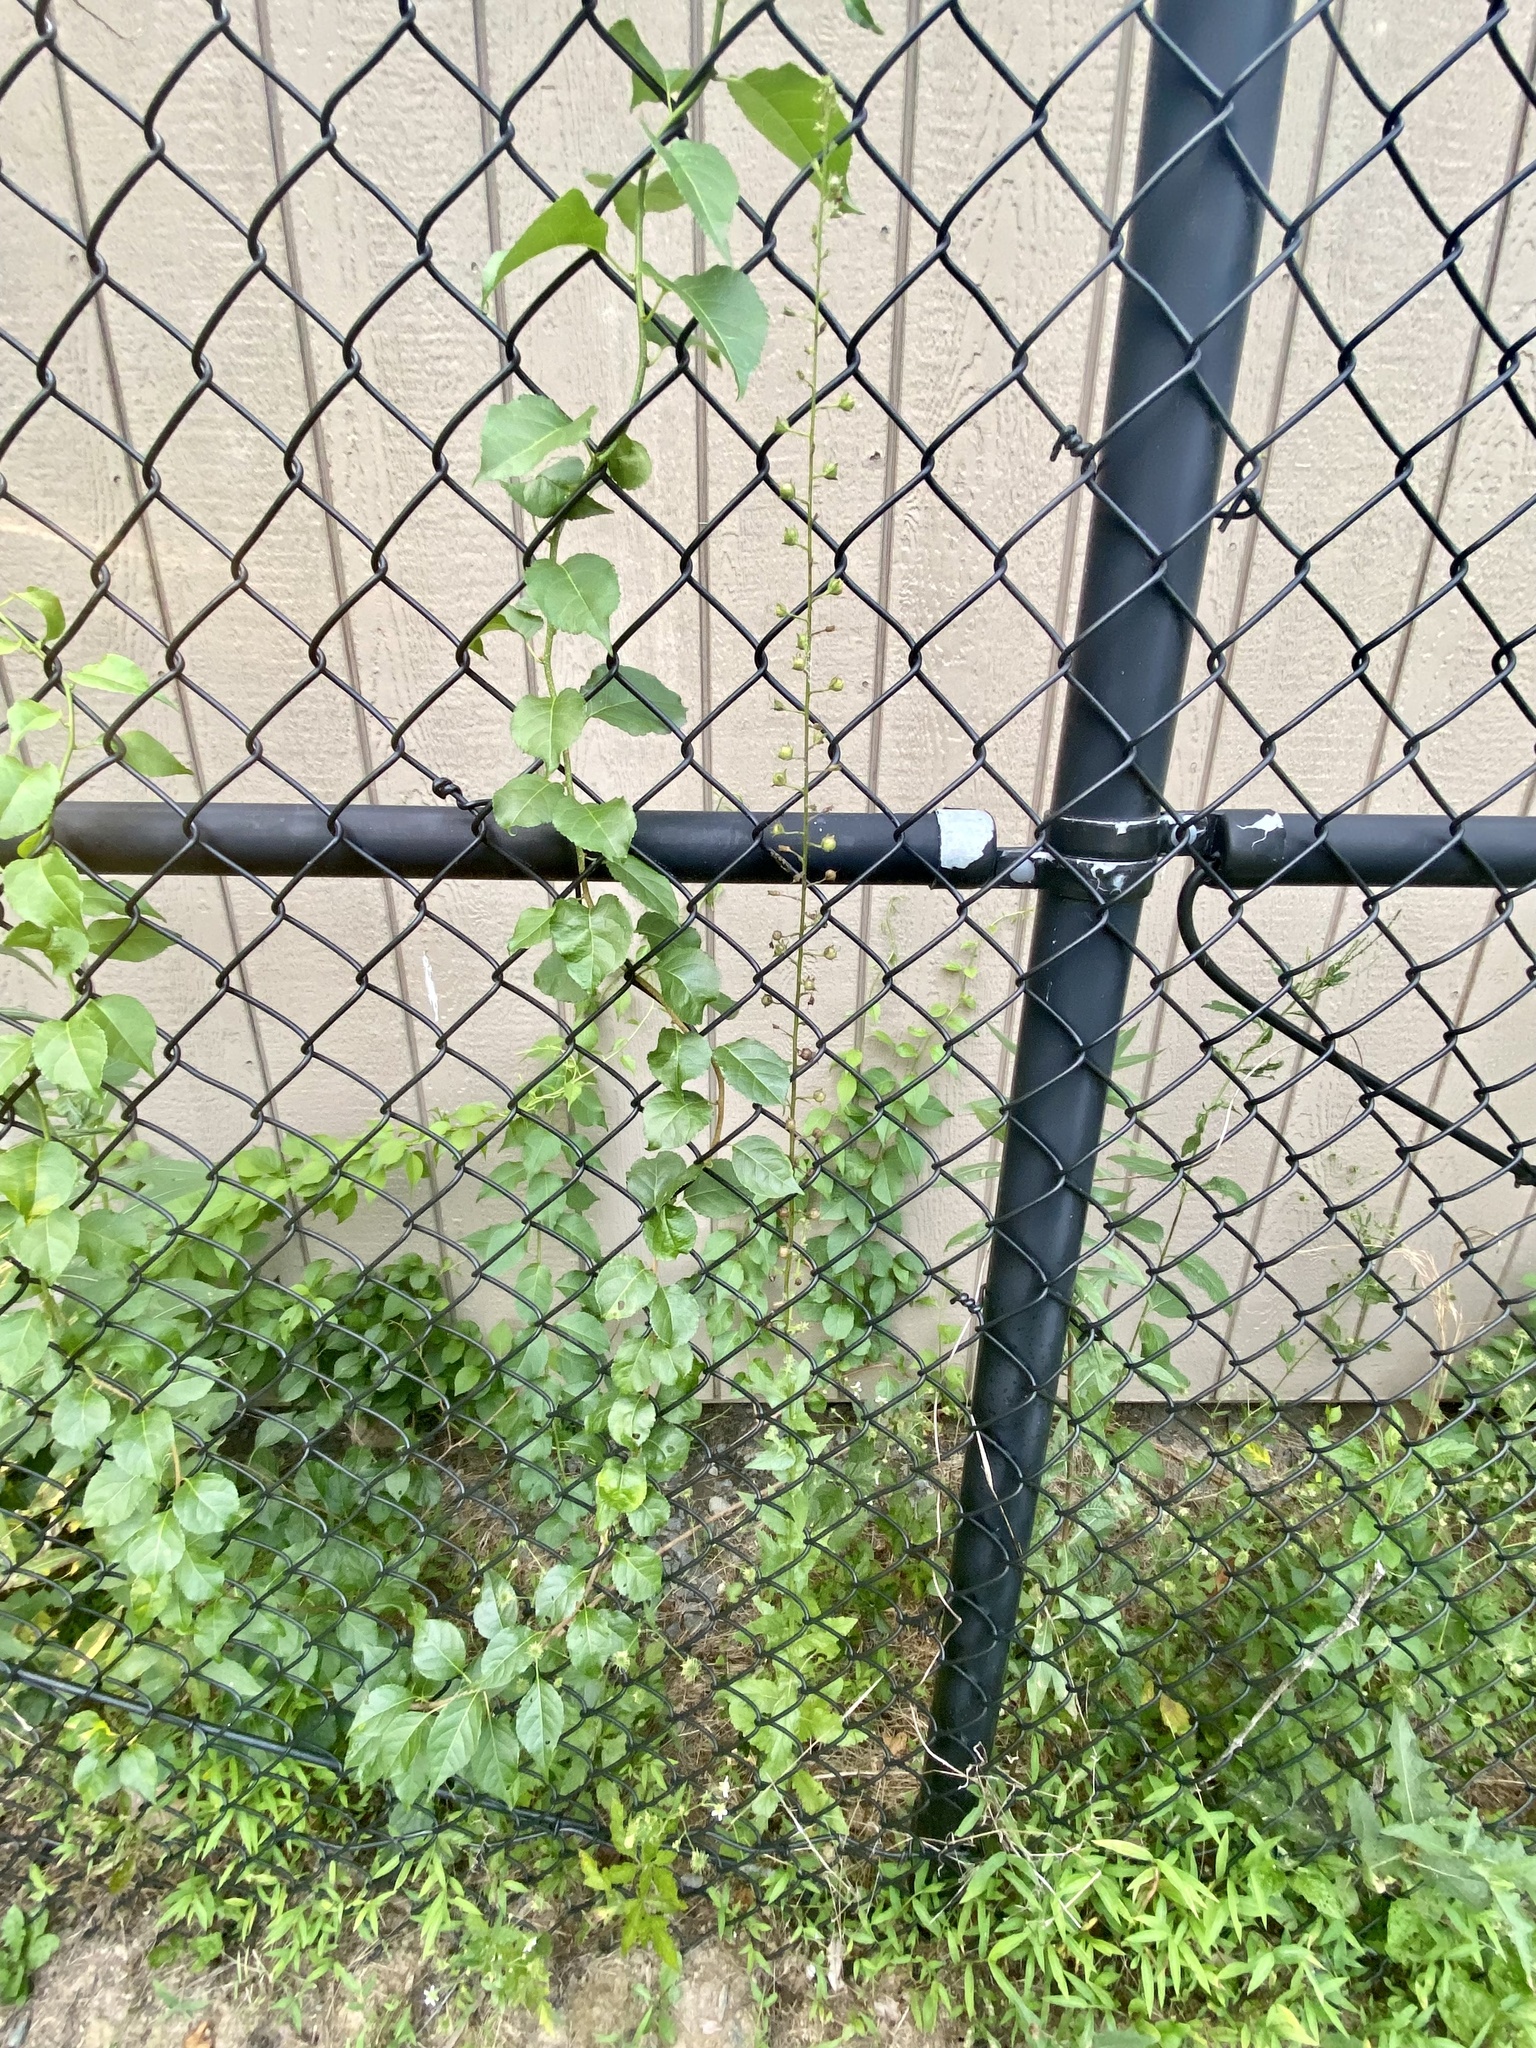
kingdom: Plantae
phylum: Tracheophyta
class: Magnoliopsida
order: Celastrales
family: Celastraceae
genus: Celastrus
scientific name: Celastrus orbiculatus
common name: Oriental bittersweet
